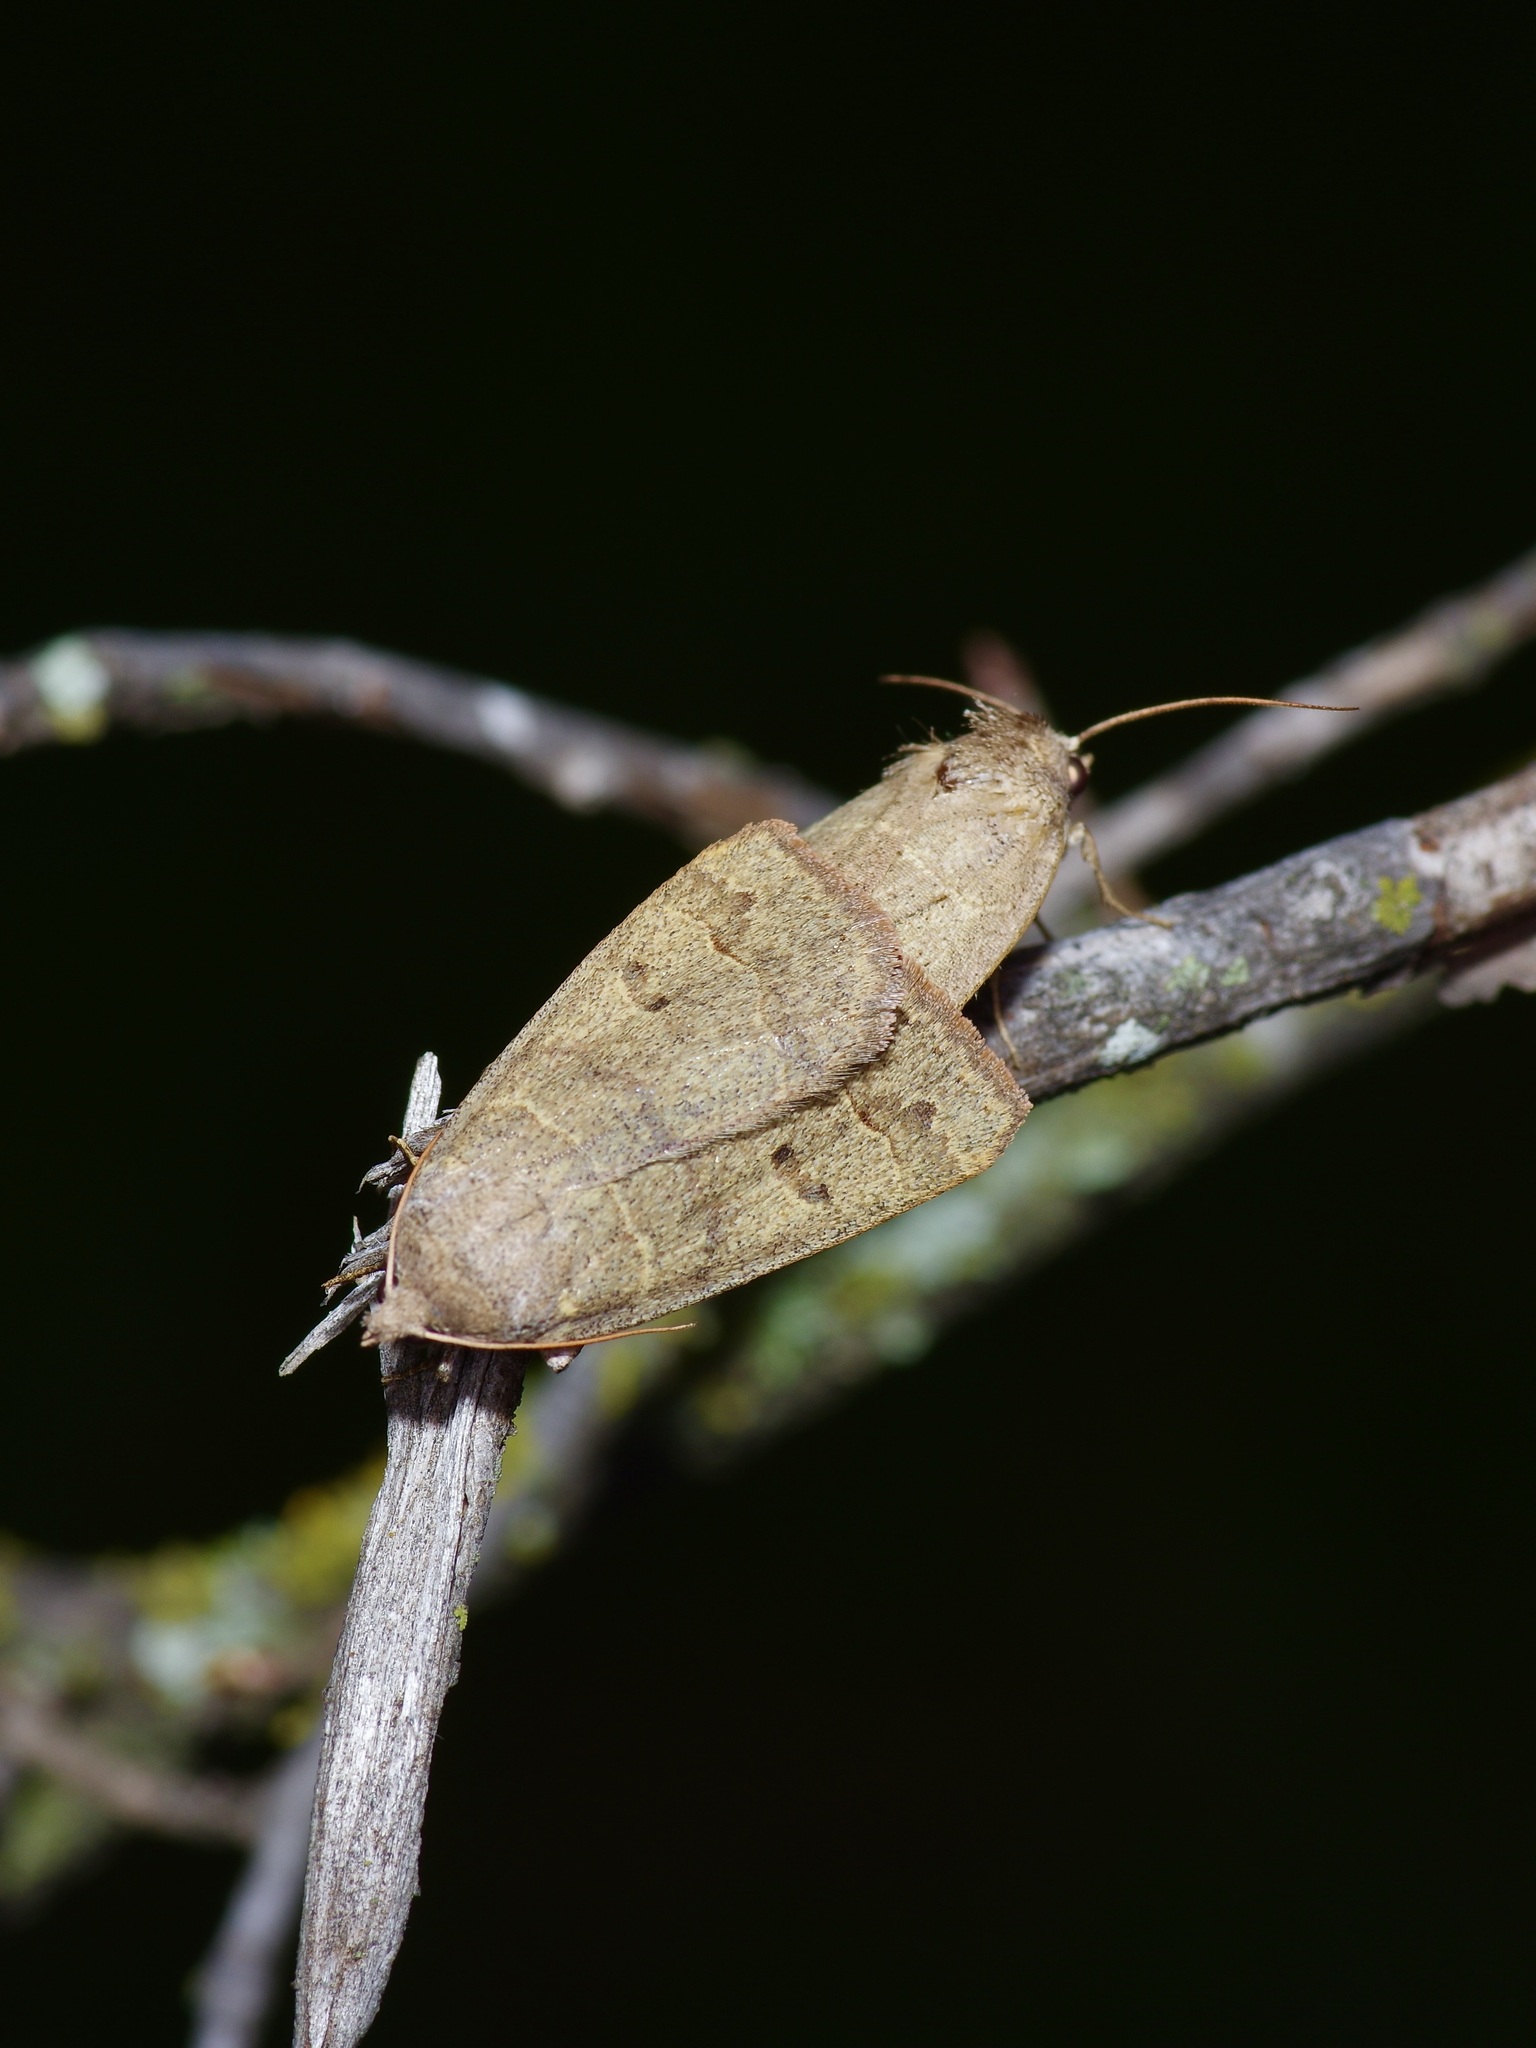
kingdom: Animalia
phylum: Arthropoda
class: Insecta
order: Lepidoptera
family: Erebidae
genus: Phoberia
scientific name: Phoberia atomaris
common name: Common oak moth
